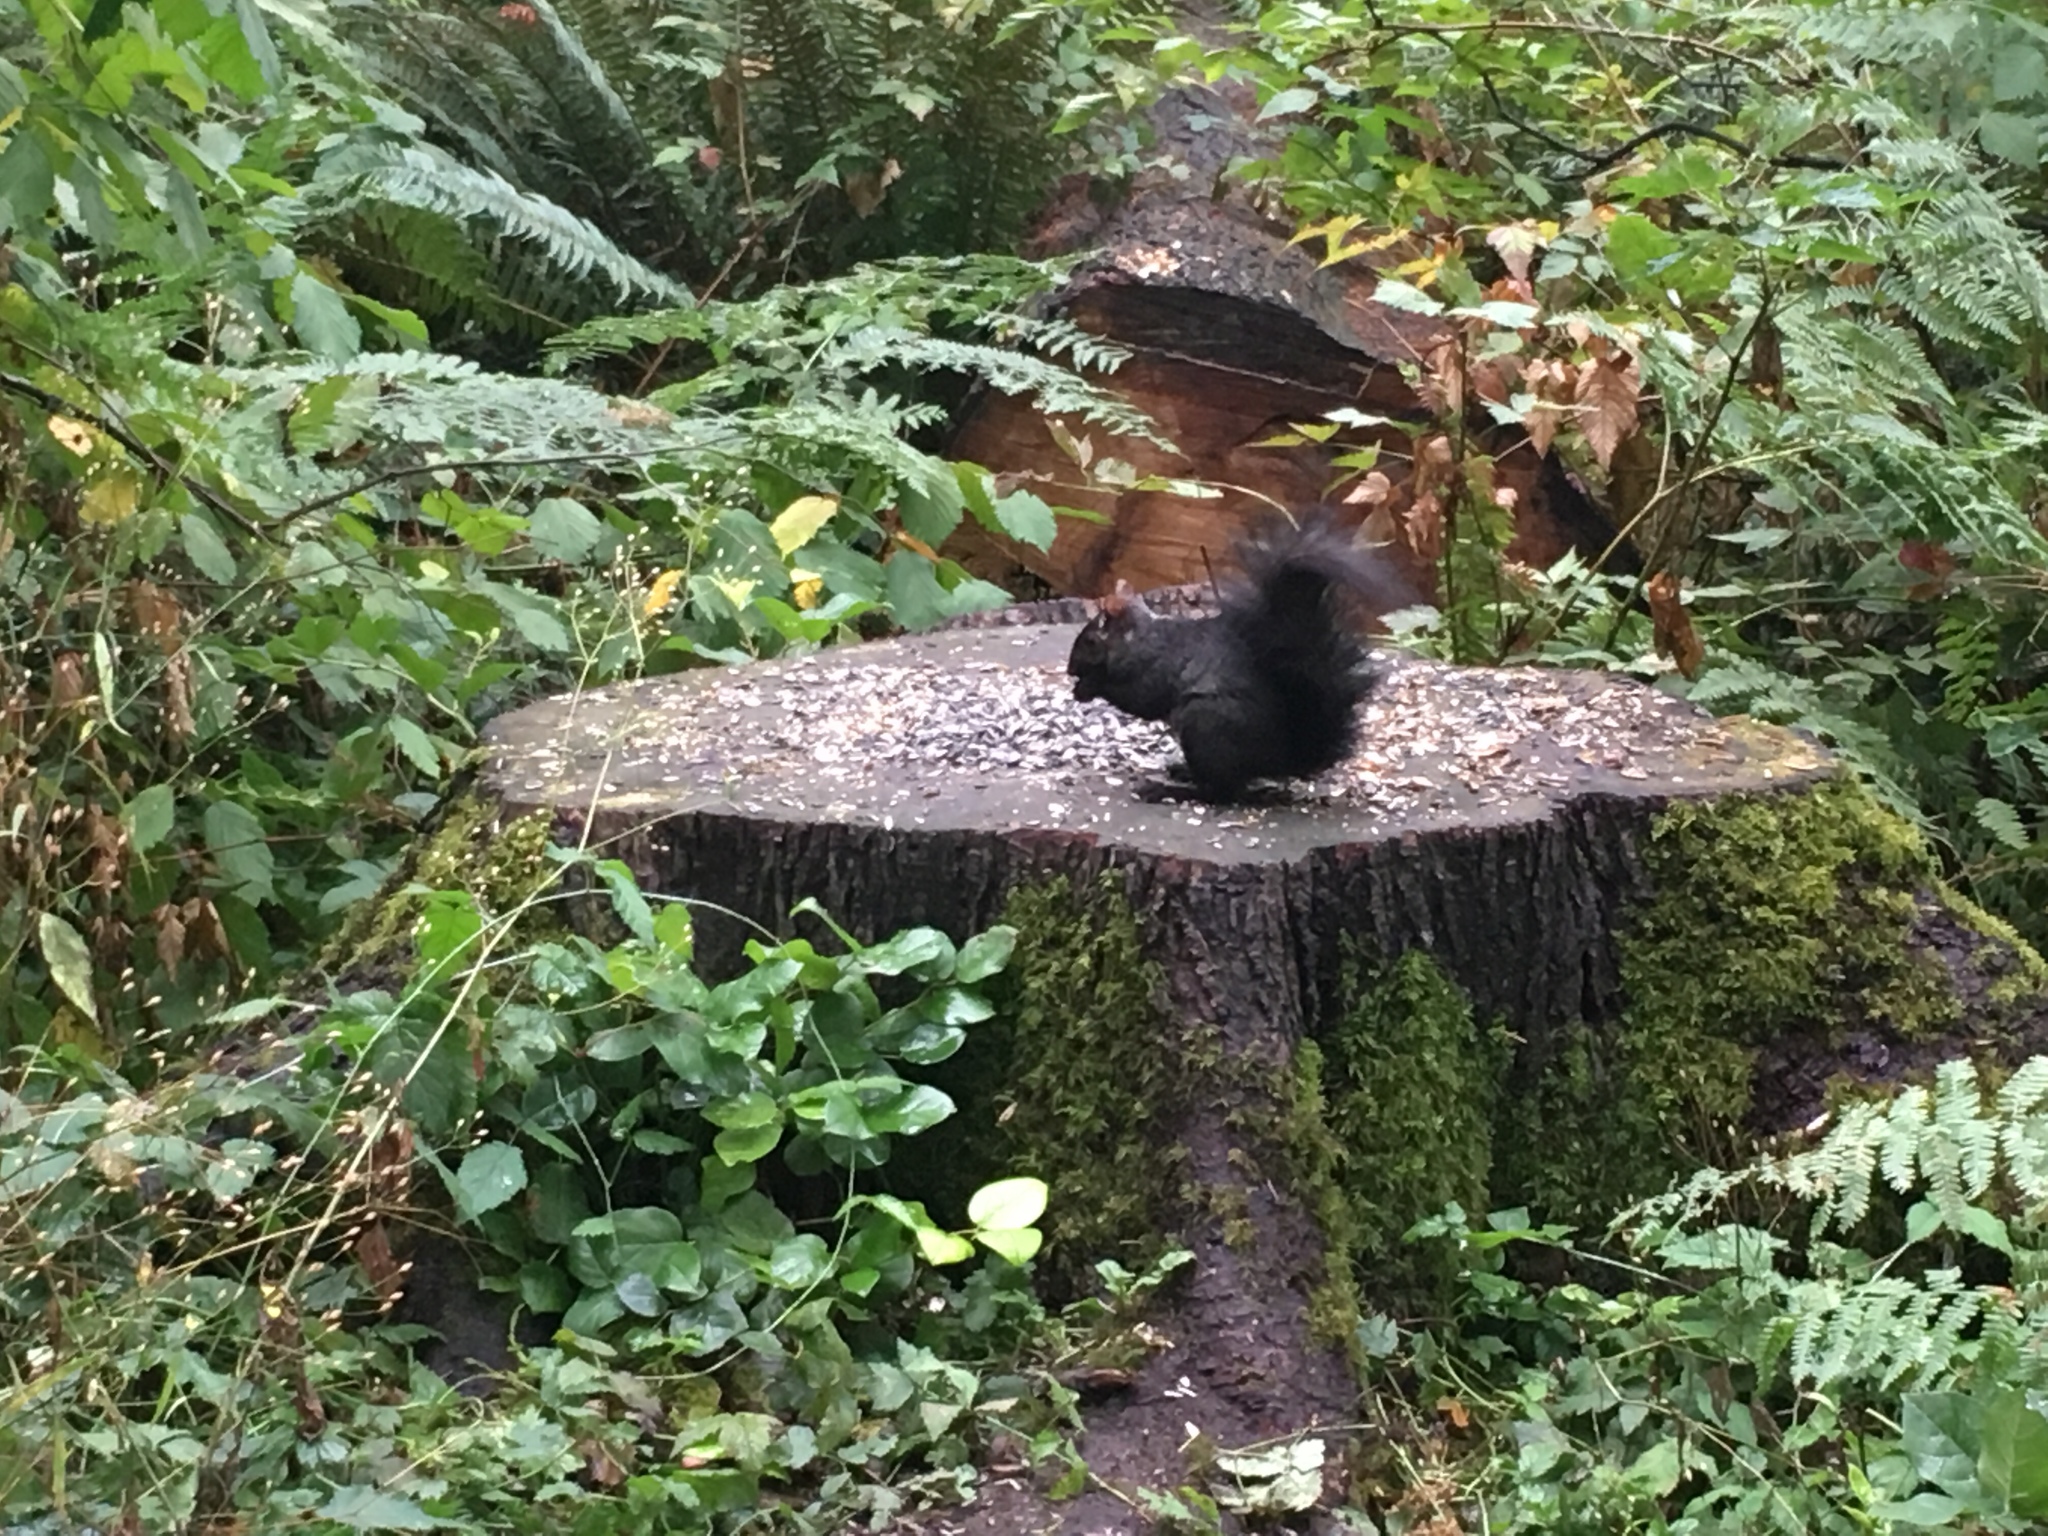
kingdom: Animalia
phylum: Chordata
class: Mammalia
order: Rodentia
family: Sciuridae
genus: Sciurus
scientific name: Sciurus carolinensis
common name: Eastern gray squirrel
